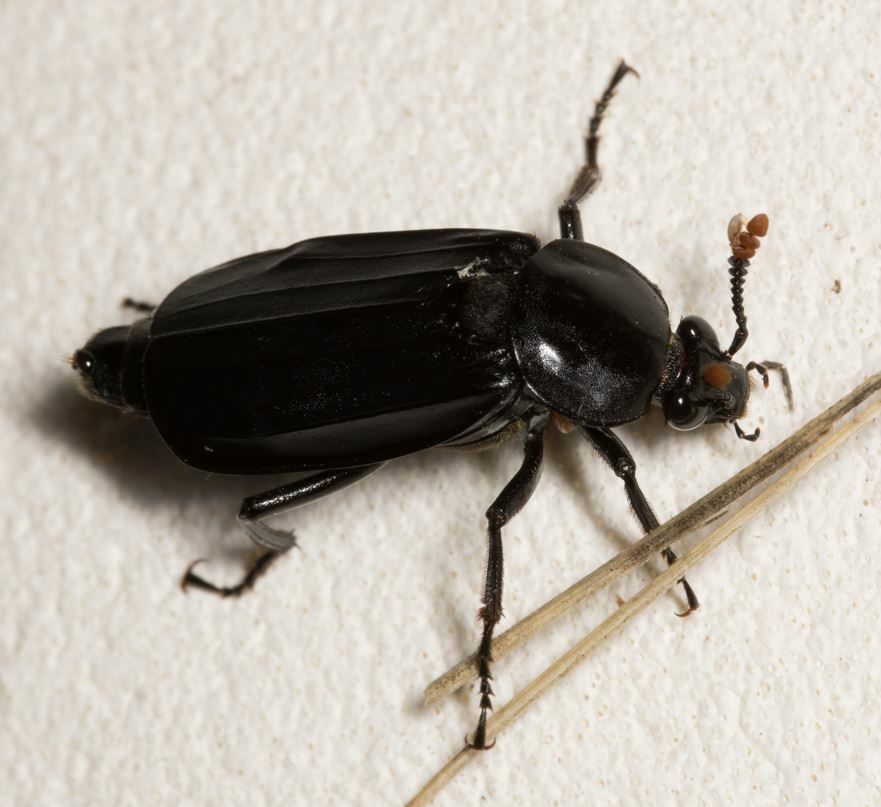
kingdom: Animalia
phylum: Arthropoda
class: Insecta
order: Coleoptera
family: Staphylinidae
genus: Necrodes
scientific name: Necrodes littoralis
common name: Shore sexton beetle
